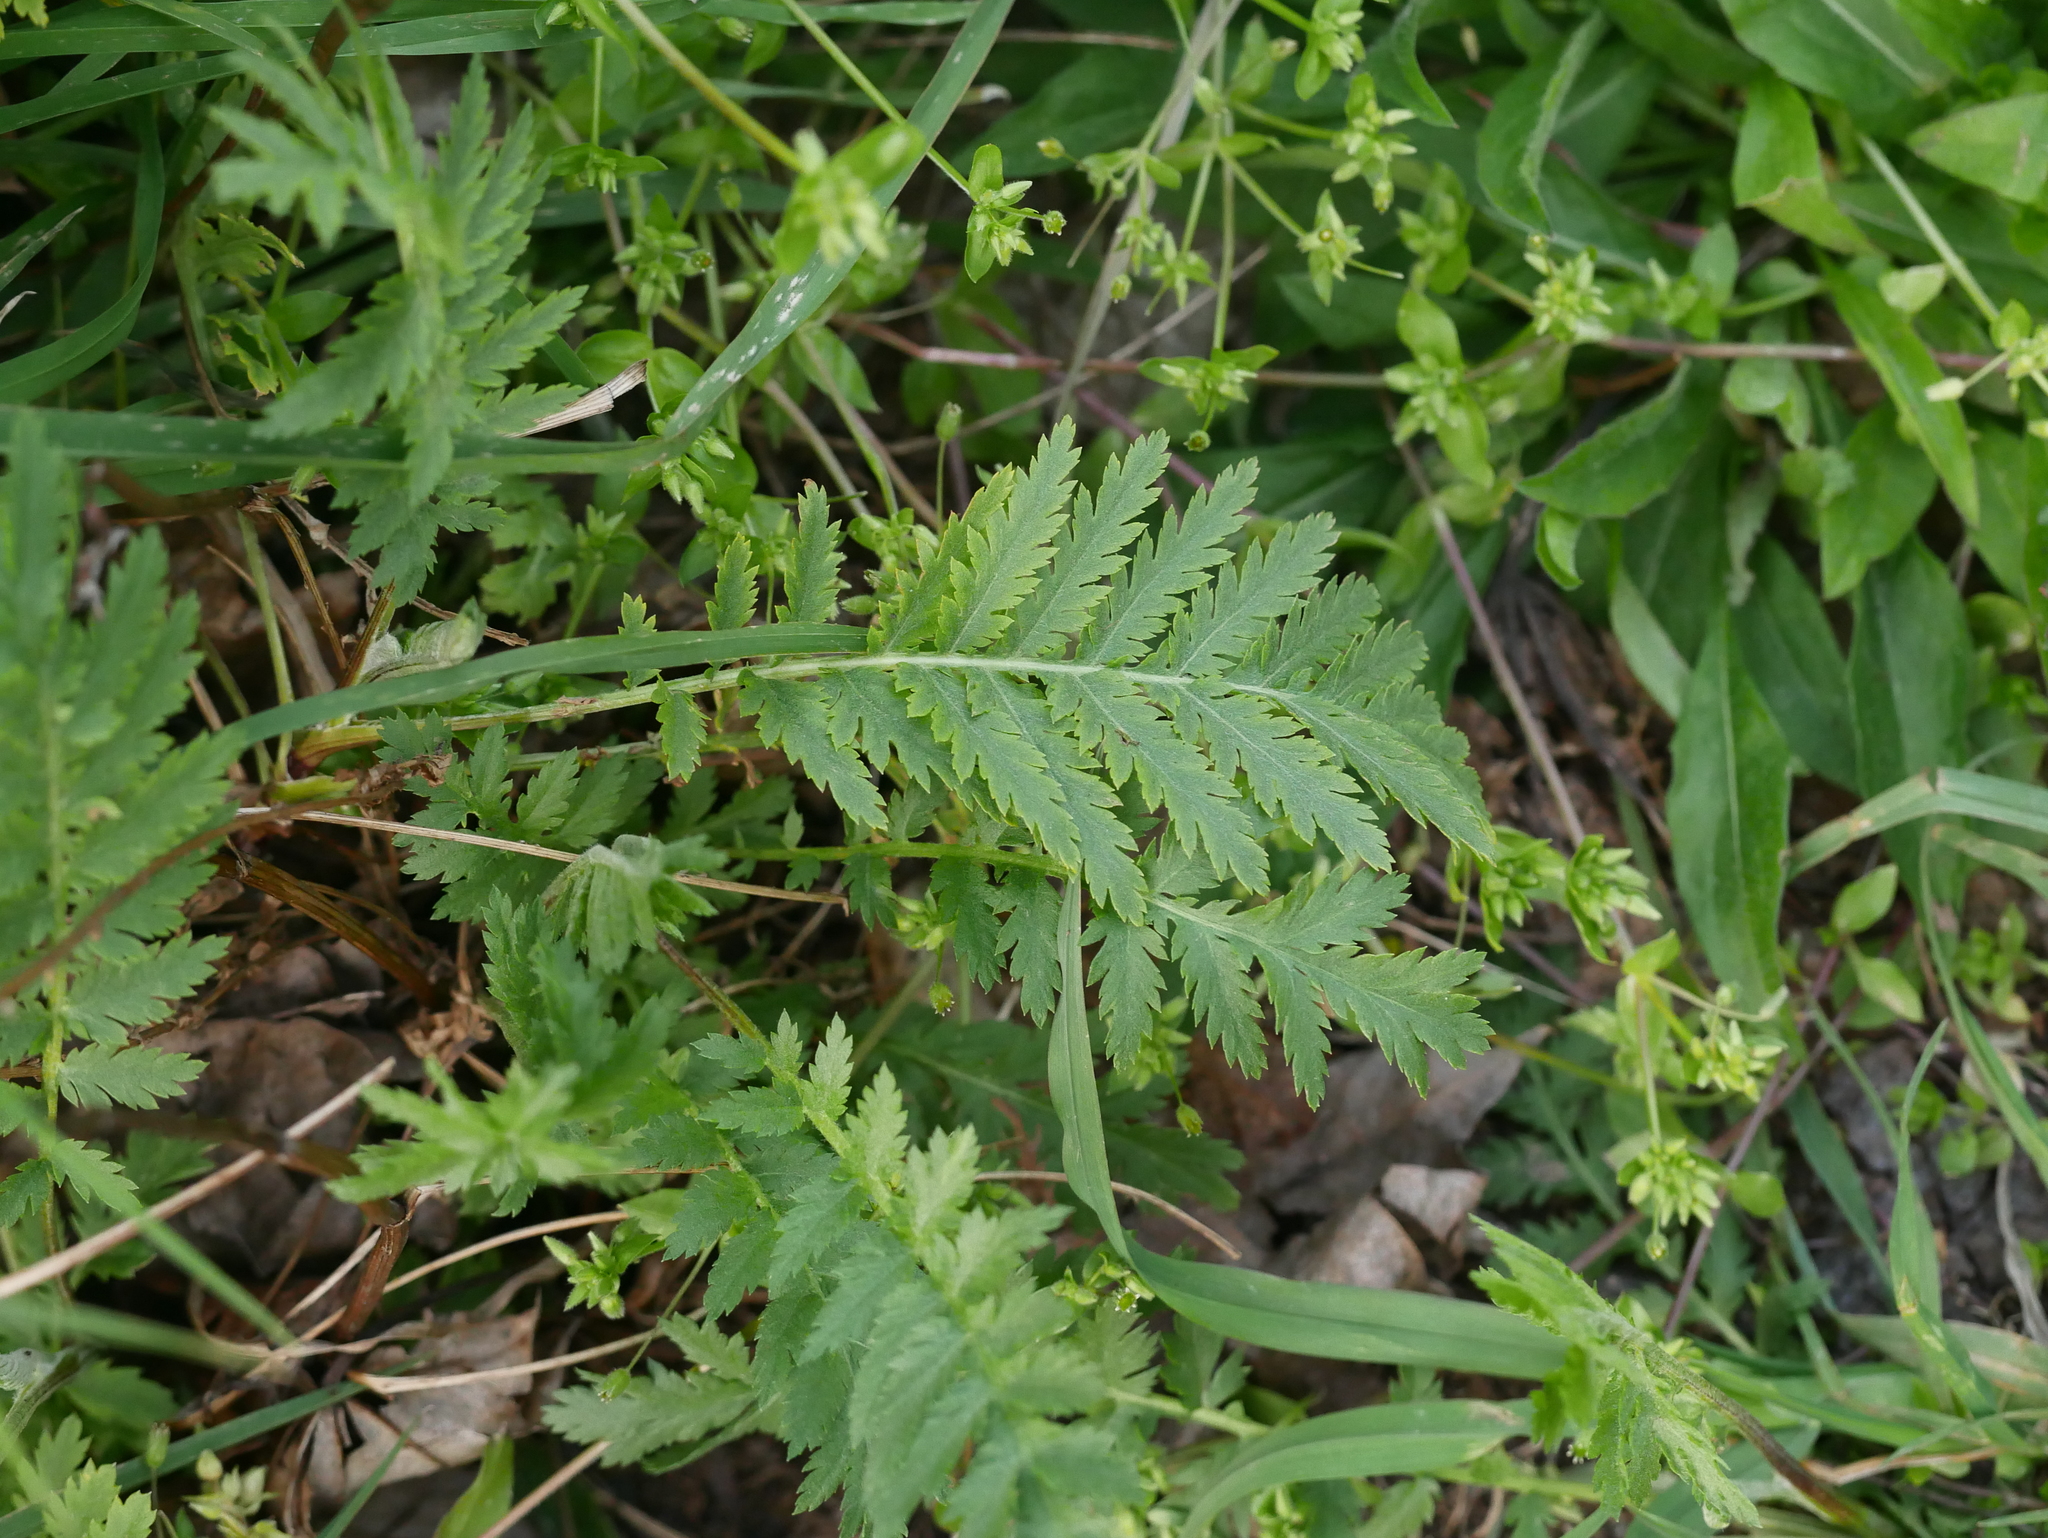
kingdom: Plantae
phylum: Tracheophyta
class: Magnoliopsida
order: Asterales
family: Asteraceae
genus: Tanacetum
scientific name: Tanacetum vulgare
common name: Common tansy
